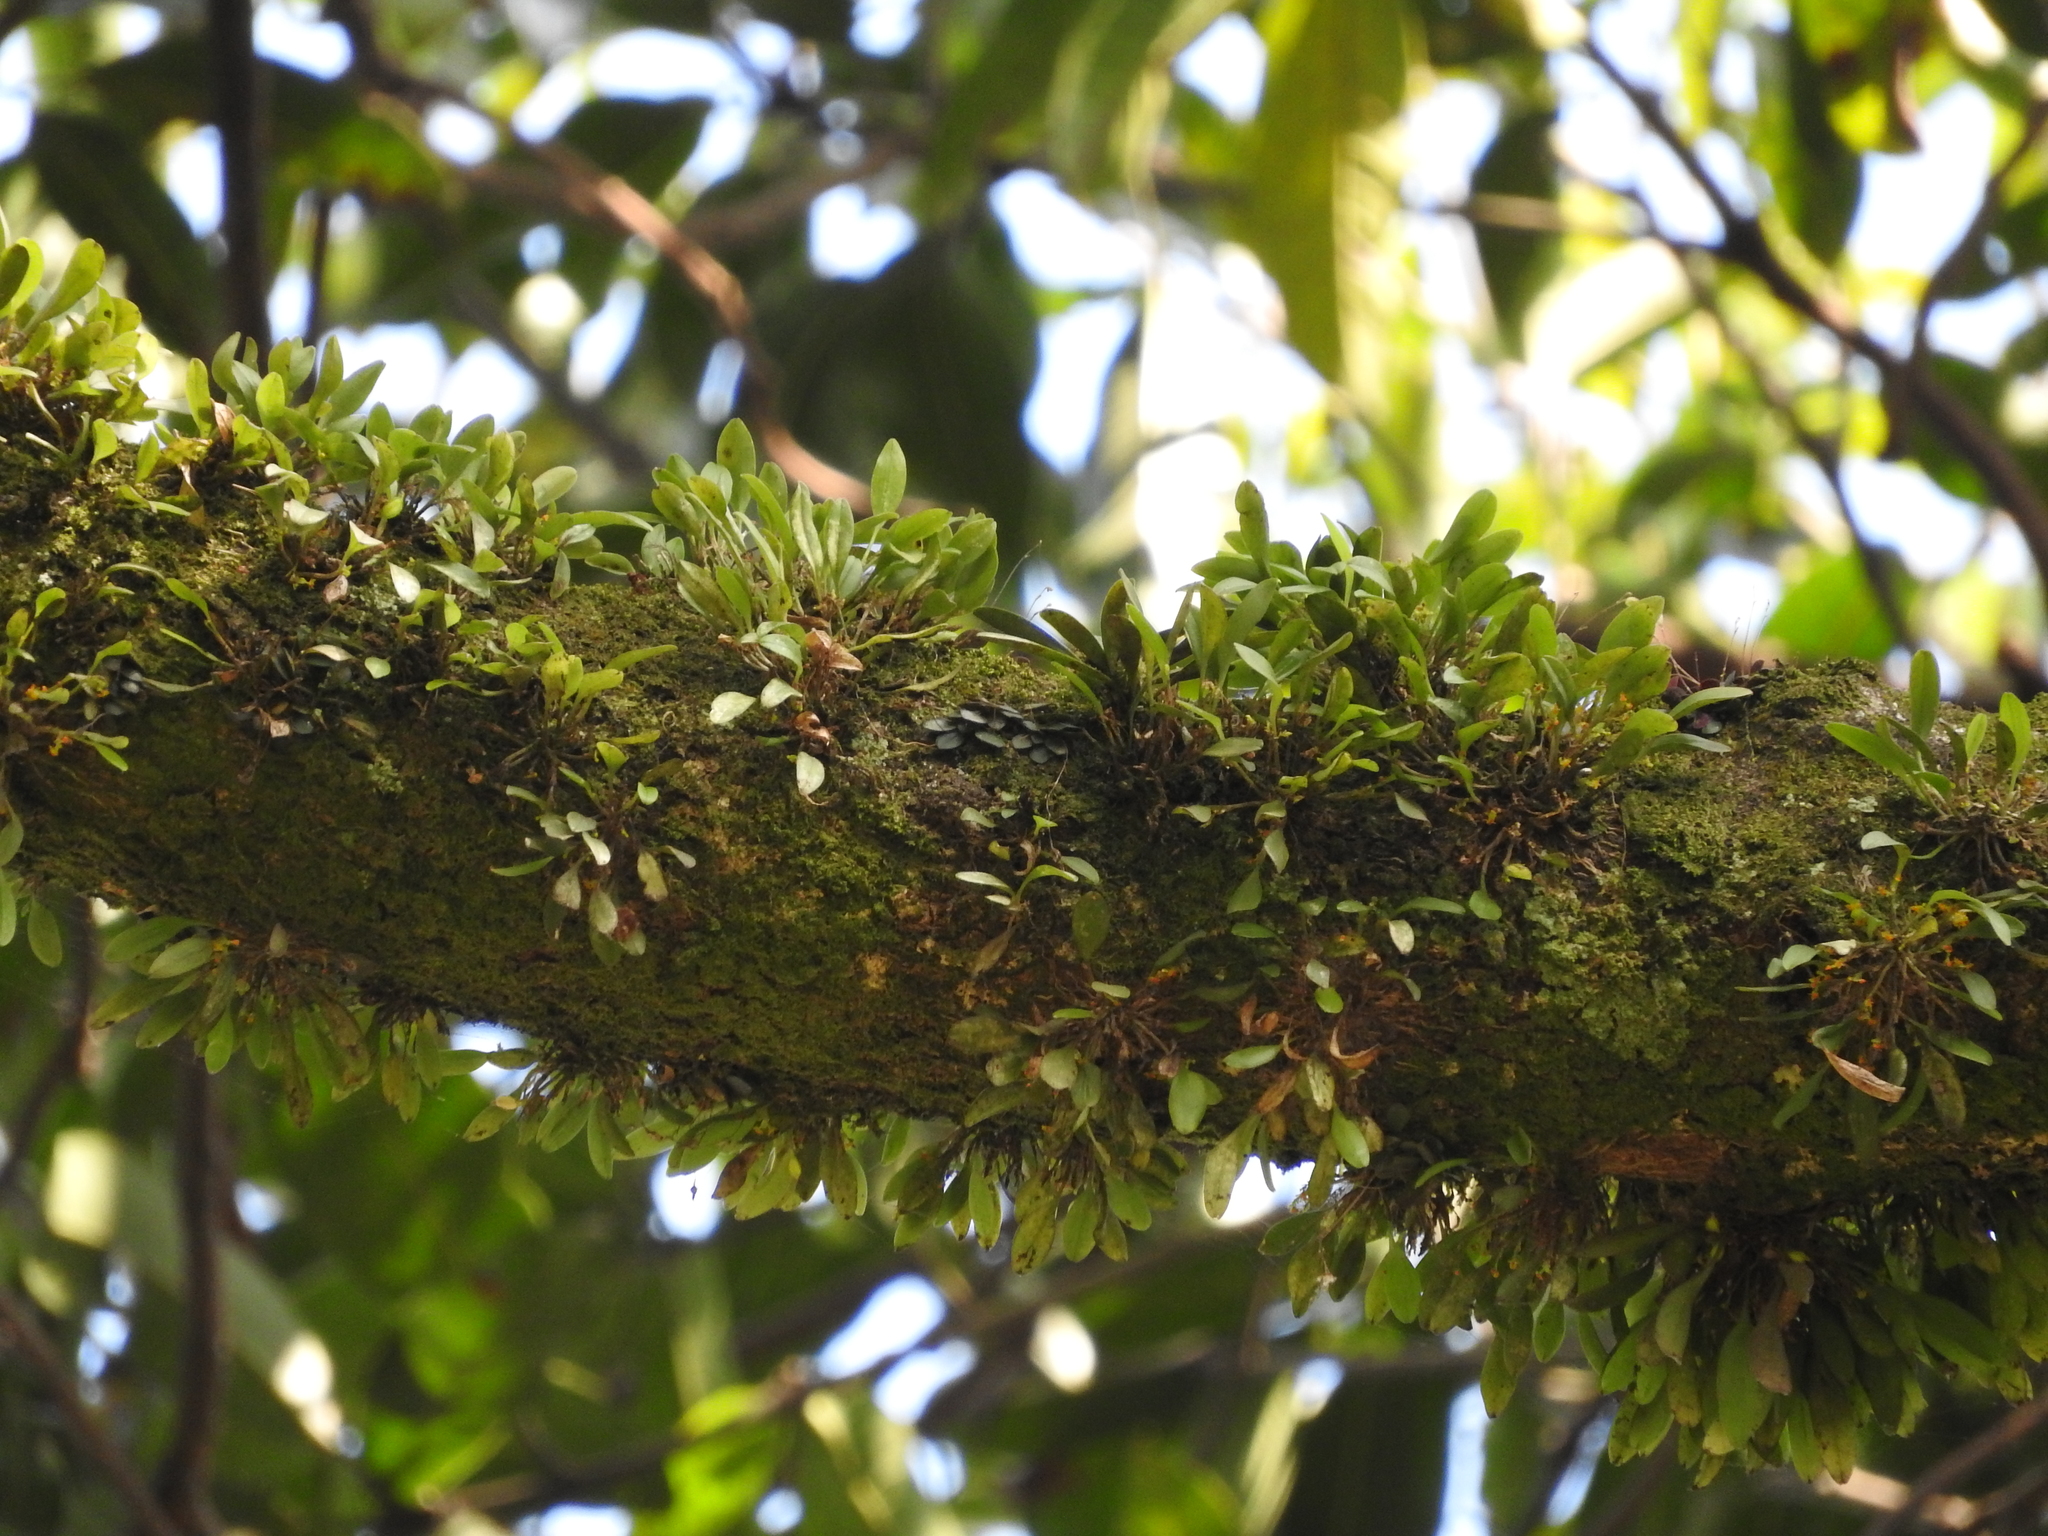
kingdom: Plantae
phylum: Tracheophyta
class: Liliopsida
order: Asparagales
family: Orchidaceae
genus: Platystele
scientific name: Platystele stenostachya
